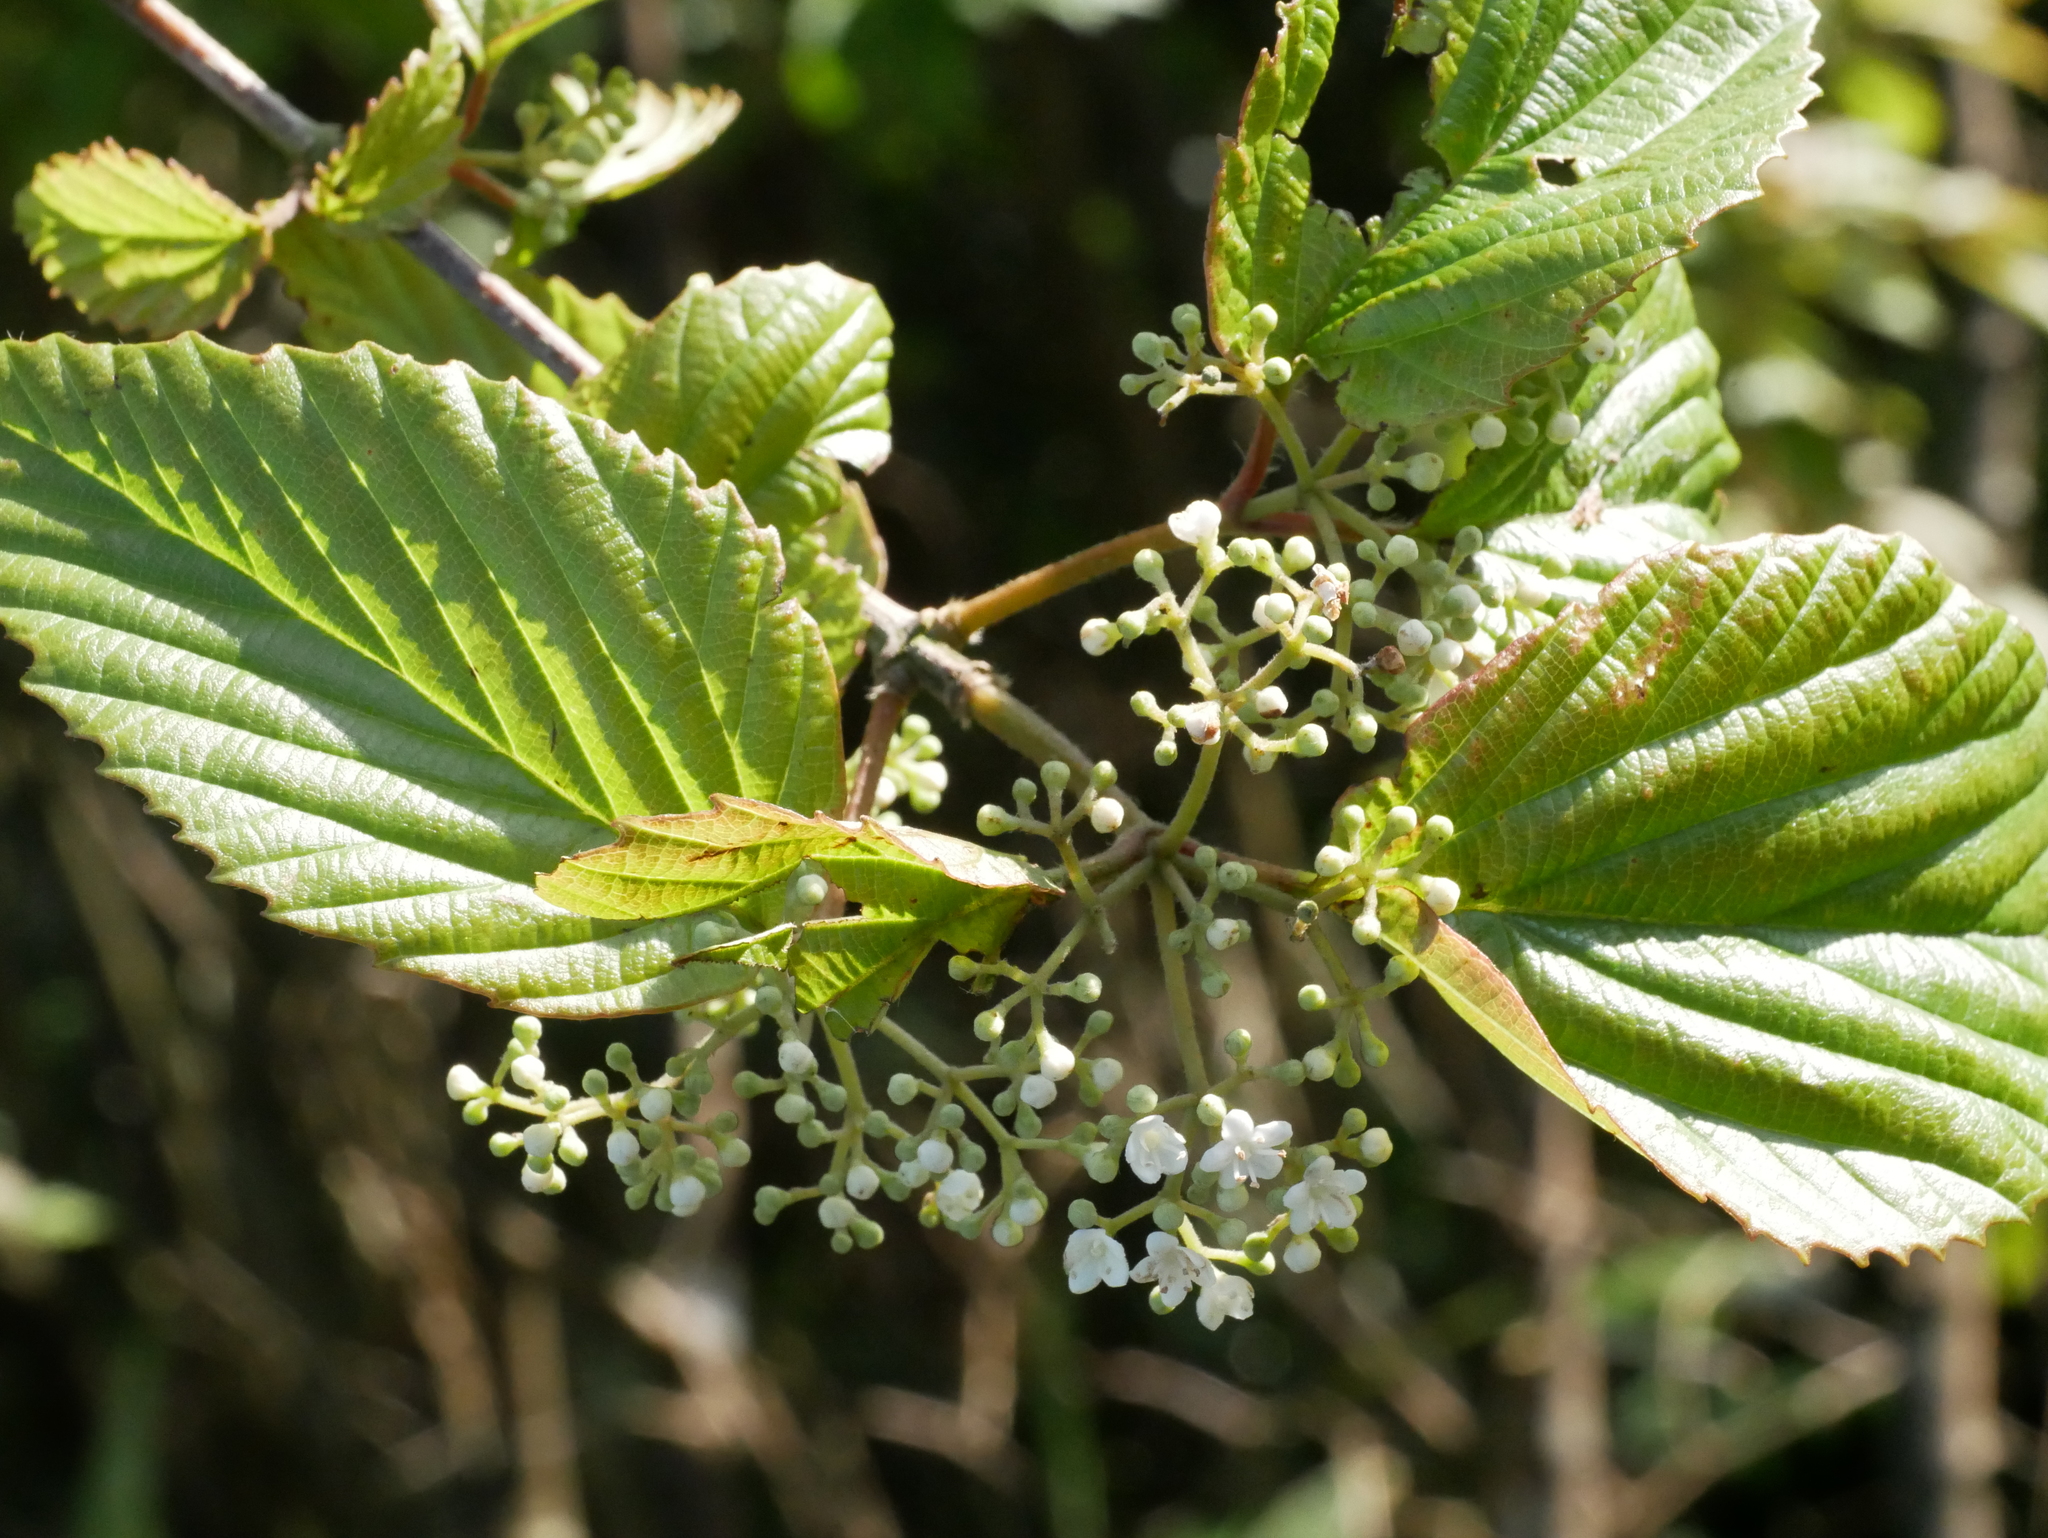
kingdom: Plantae
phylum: Tracheophyta
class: Magnoliopsida
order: Dipsacales
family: Viburnaceae
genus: Viburnum
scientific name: Viburnum luzonicum
